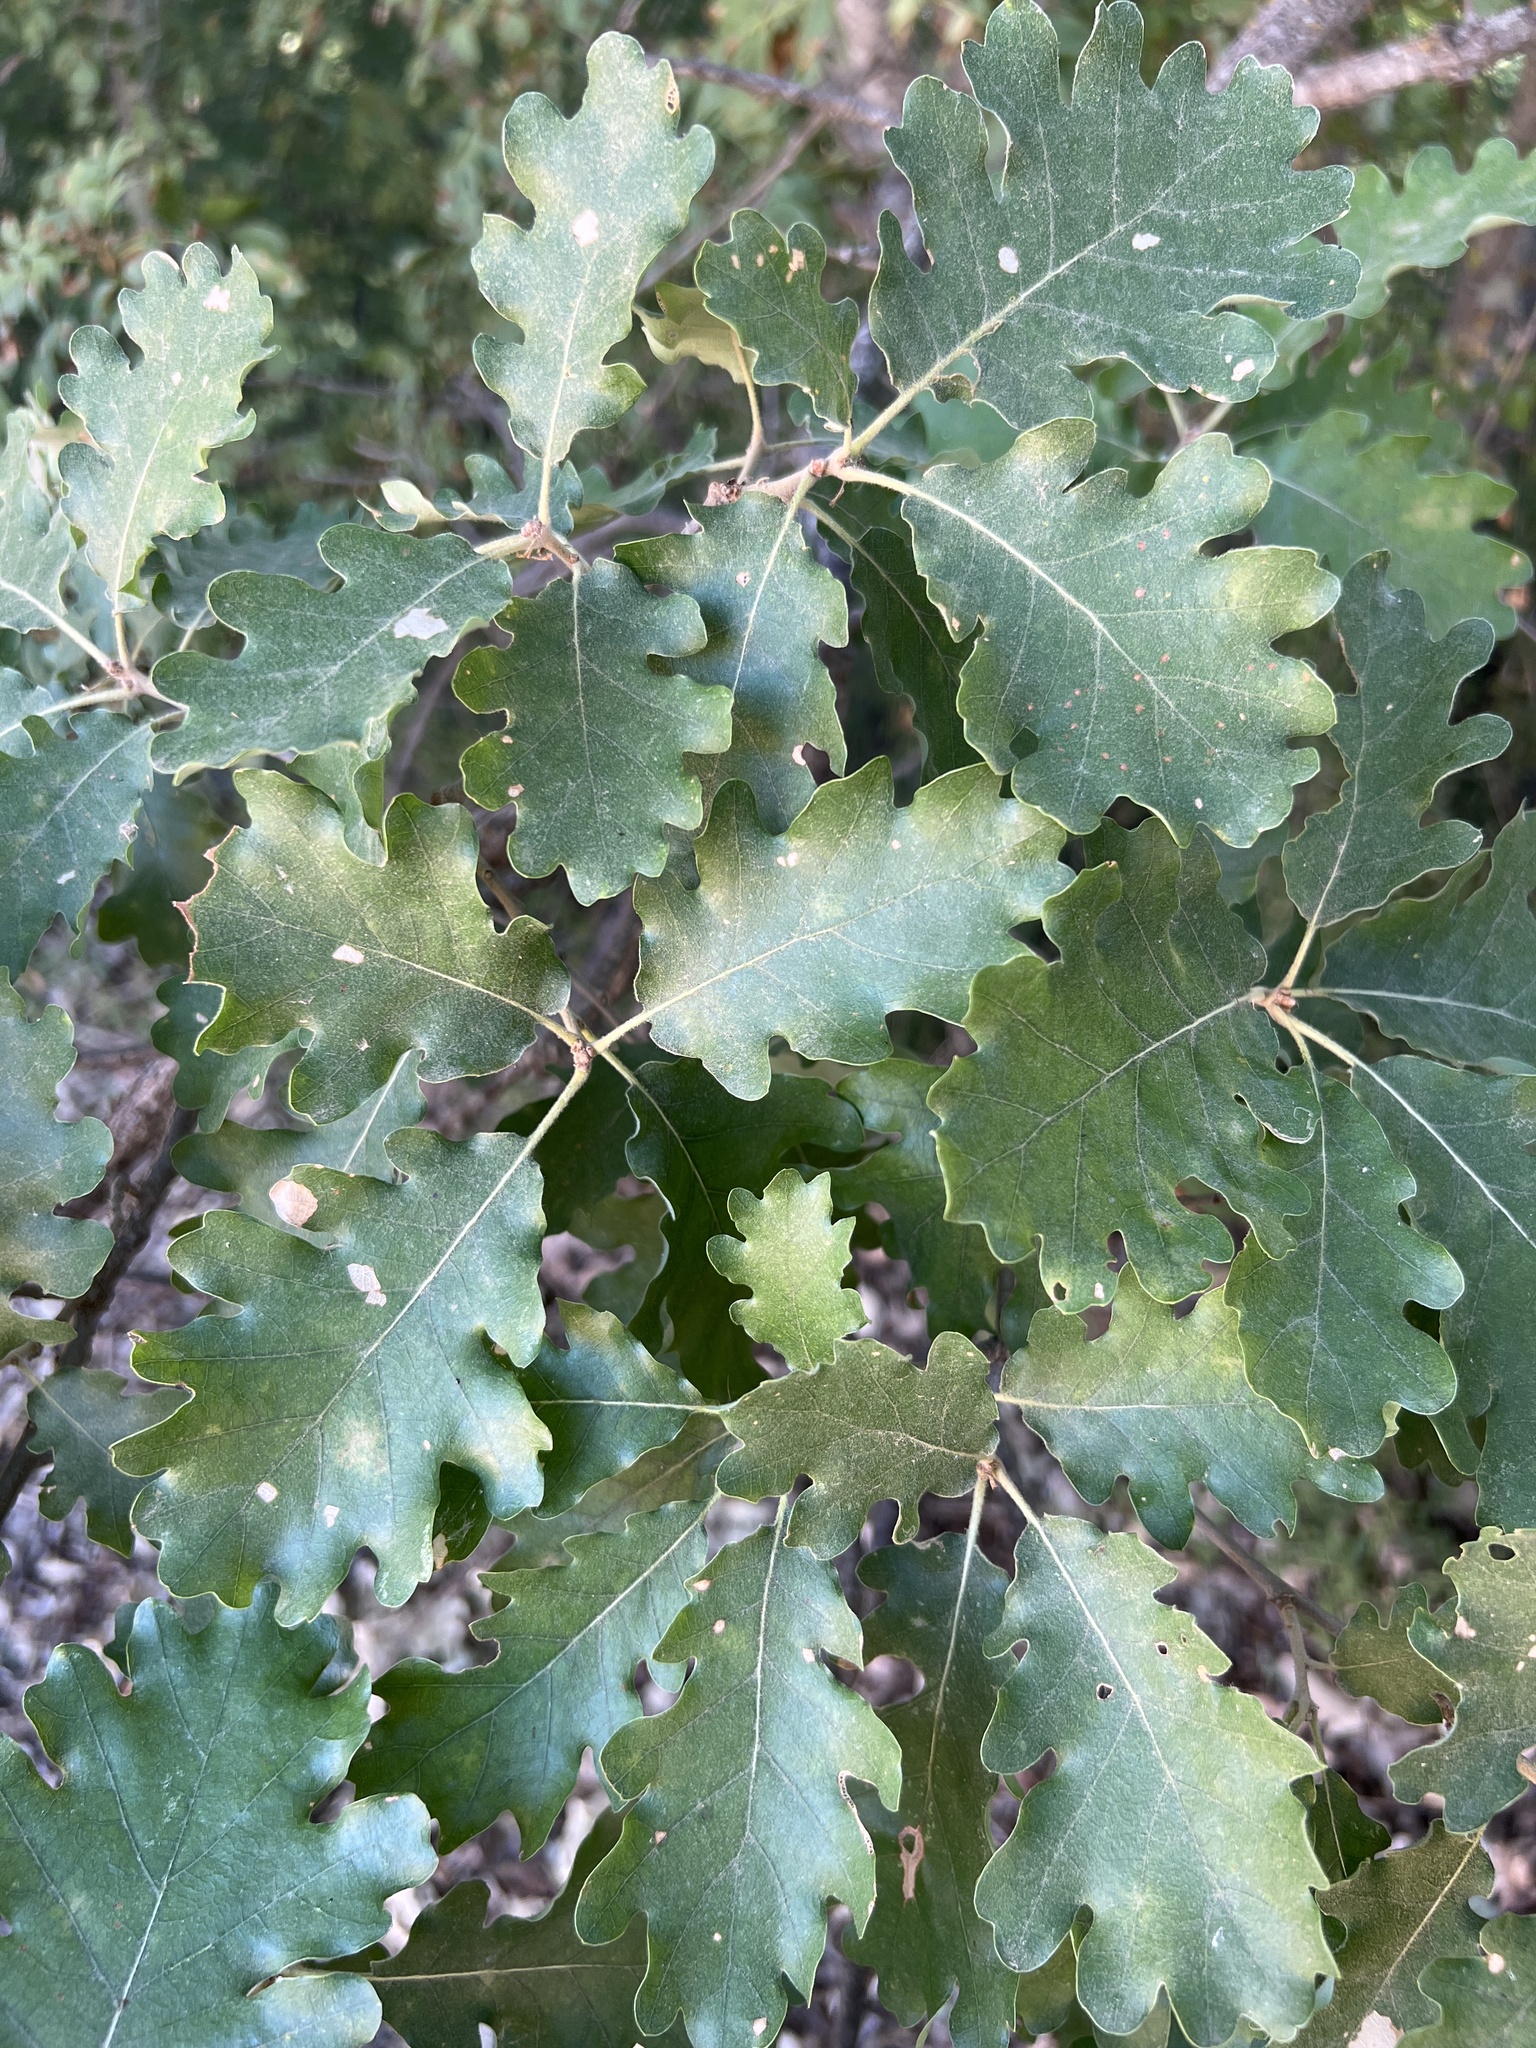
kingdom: Plantae
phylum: Tracheophyta
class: Magnoliopsida
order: Fagales
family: Fagaceae
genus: Quercus
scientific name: Quercus pubescens
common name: Downy oak
